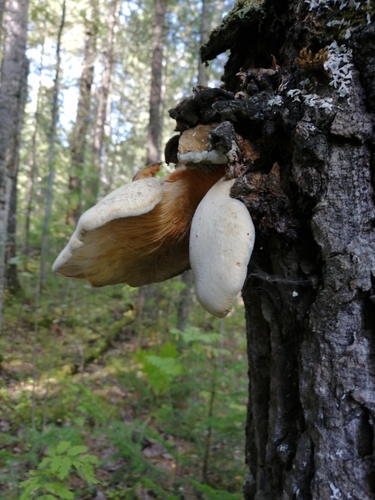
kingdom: Fungi
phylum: Basidiomycota
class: Agaricomycetes
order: Polyporales
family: Polyporaceae
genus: Lentinus
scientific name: Lentinus pilososquamulosus
